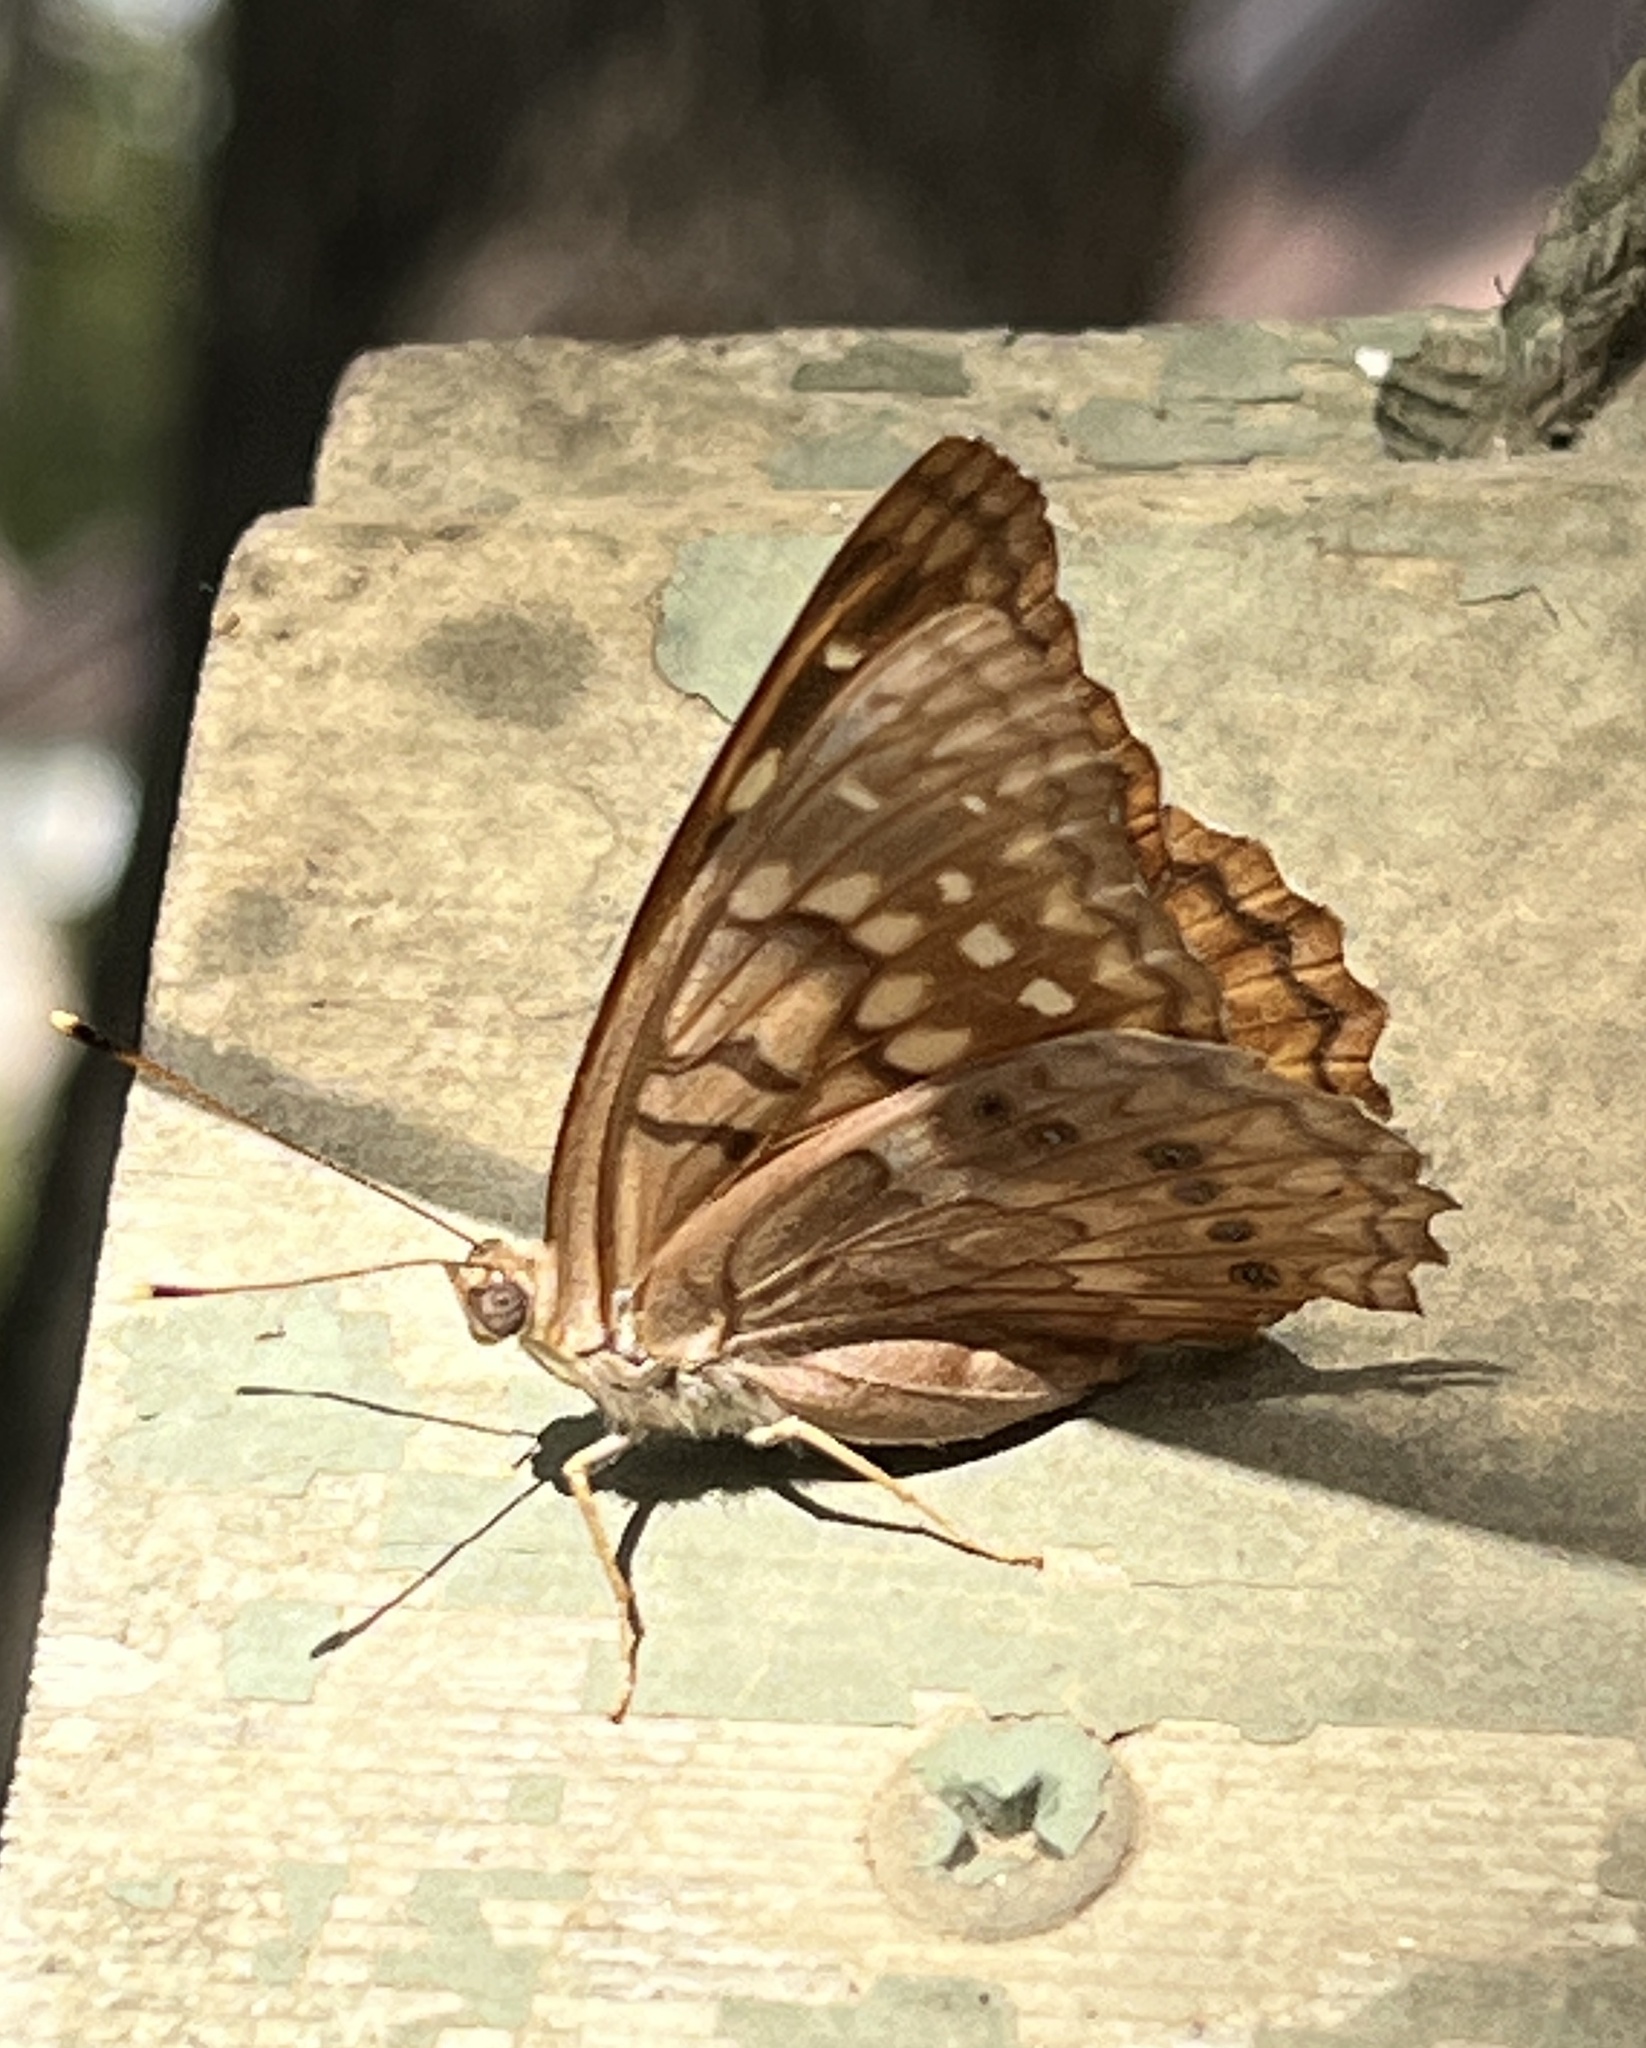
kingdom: Animalia
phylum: Arthropoda
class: Insecta
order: Lepidoptera
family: Nymphalidae
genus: Asterocampa
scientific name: Asterocampa clyton
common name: Tawny emperor
